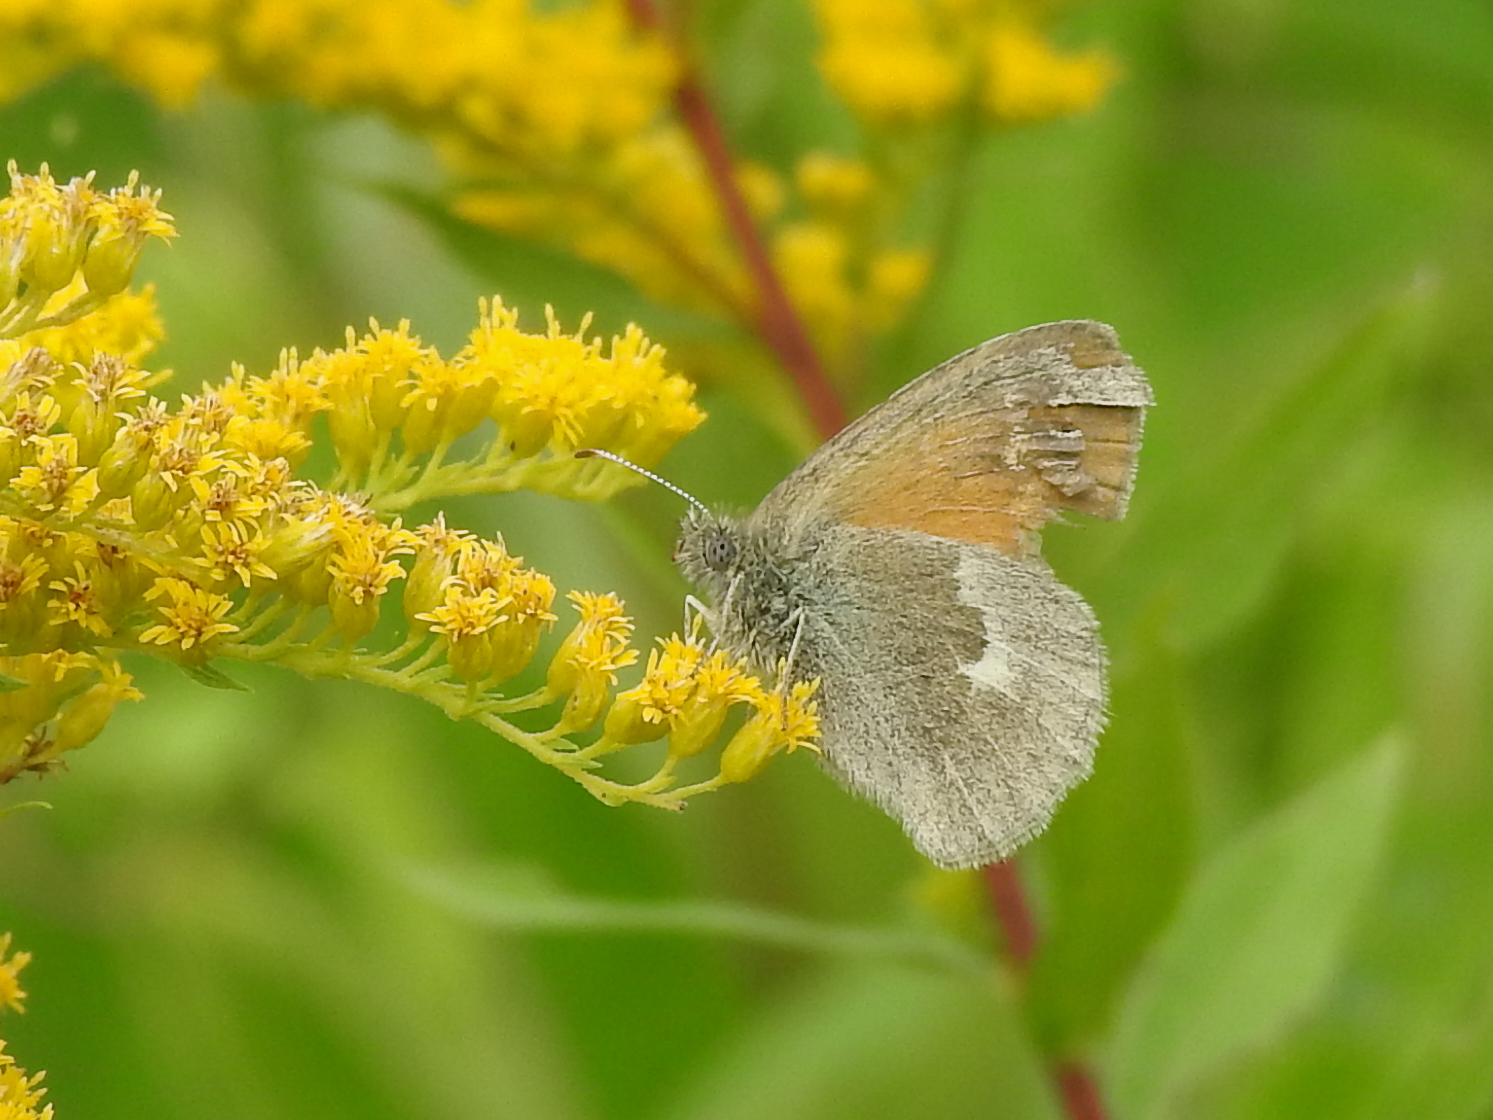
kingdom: Animalia
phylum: Arthropoda
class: Insecta
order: Lepidoptera
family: Nymphalidae
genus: Coenonympha
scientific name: Coenonympha california
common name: Common ringlet
